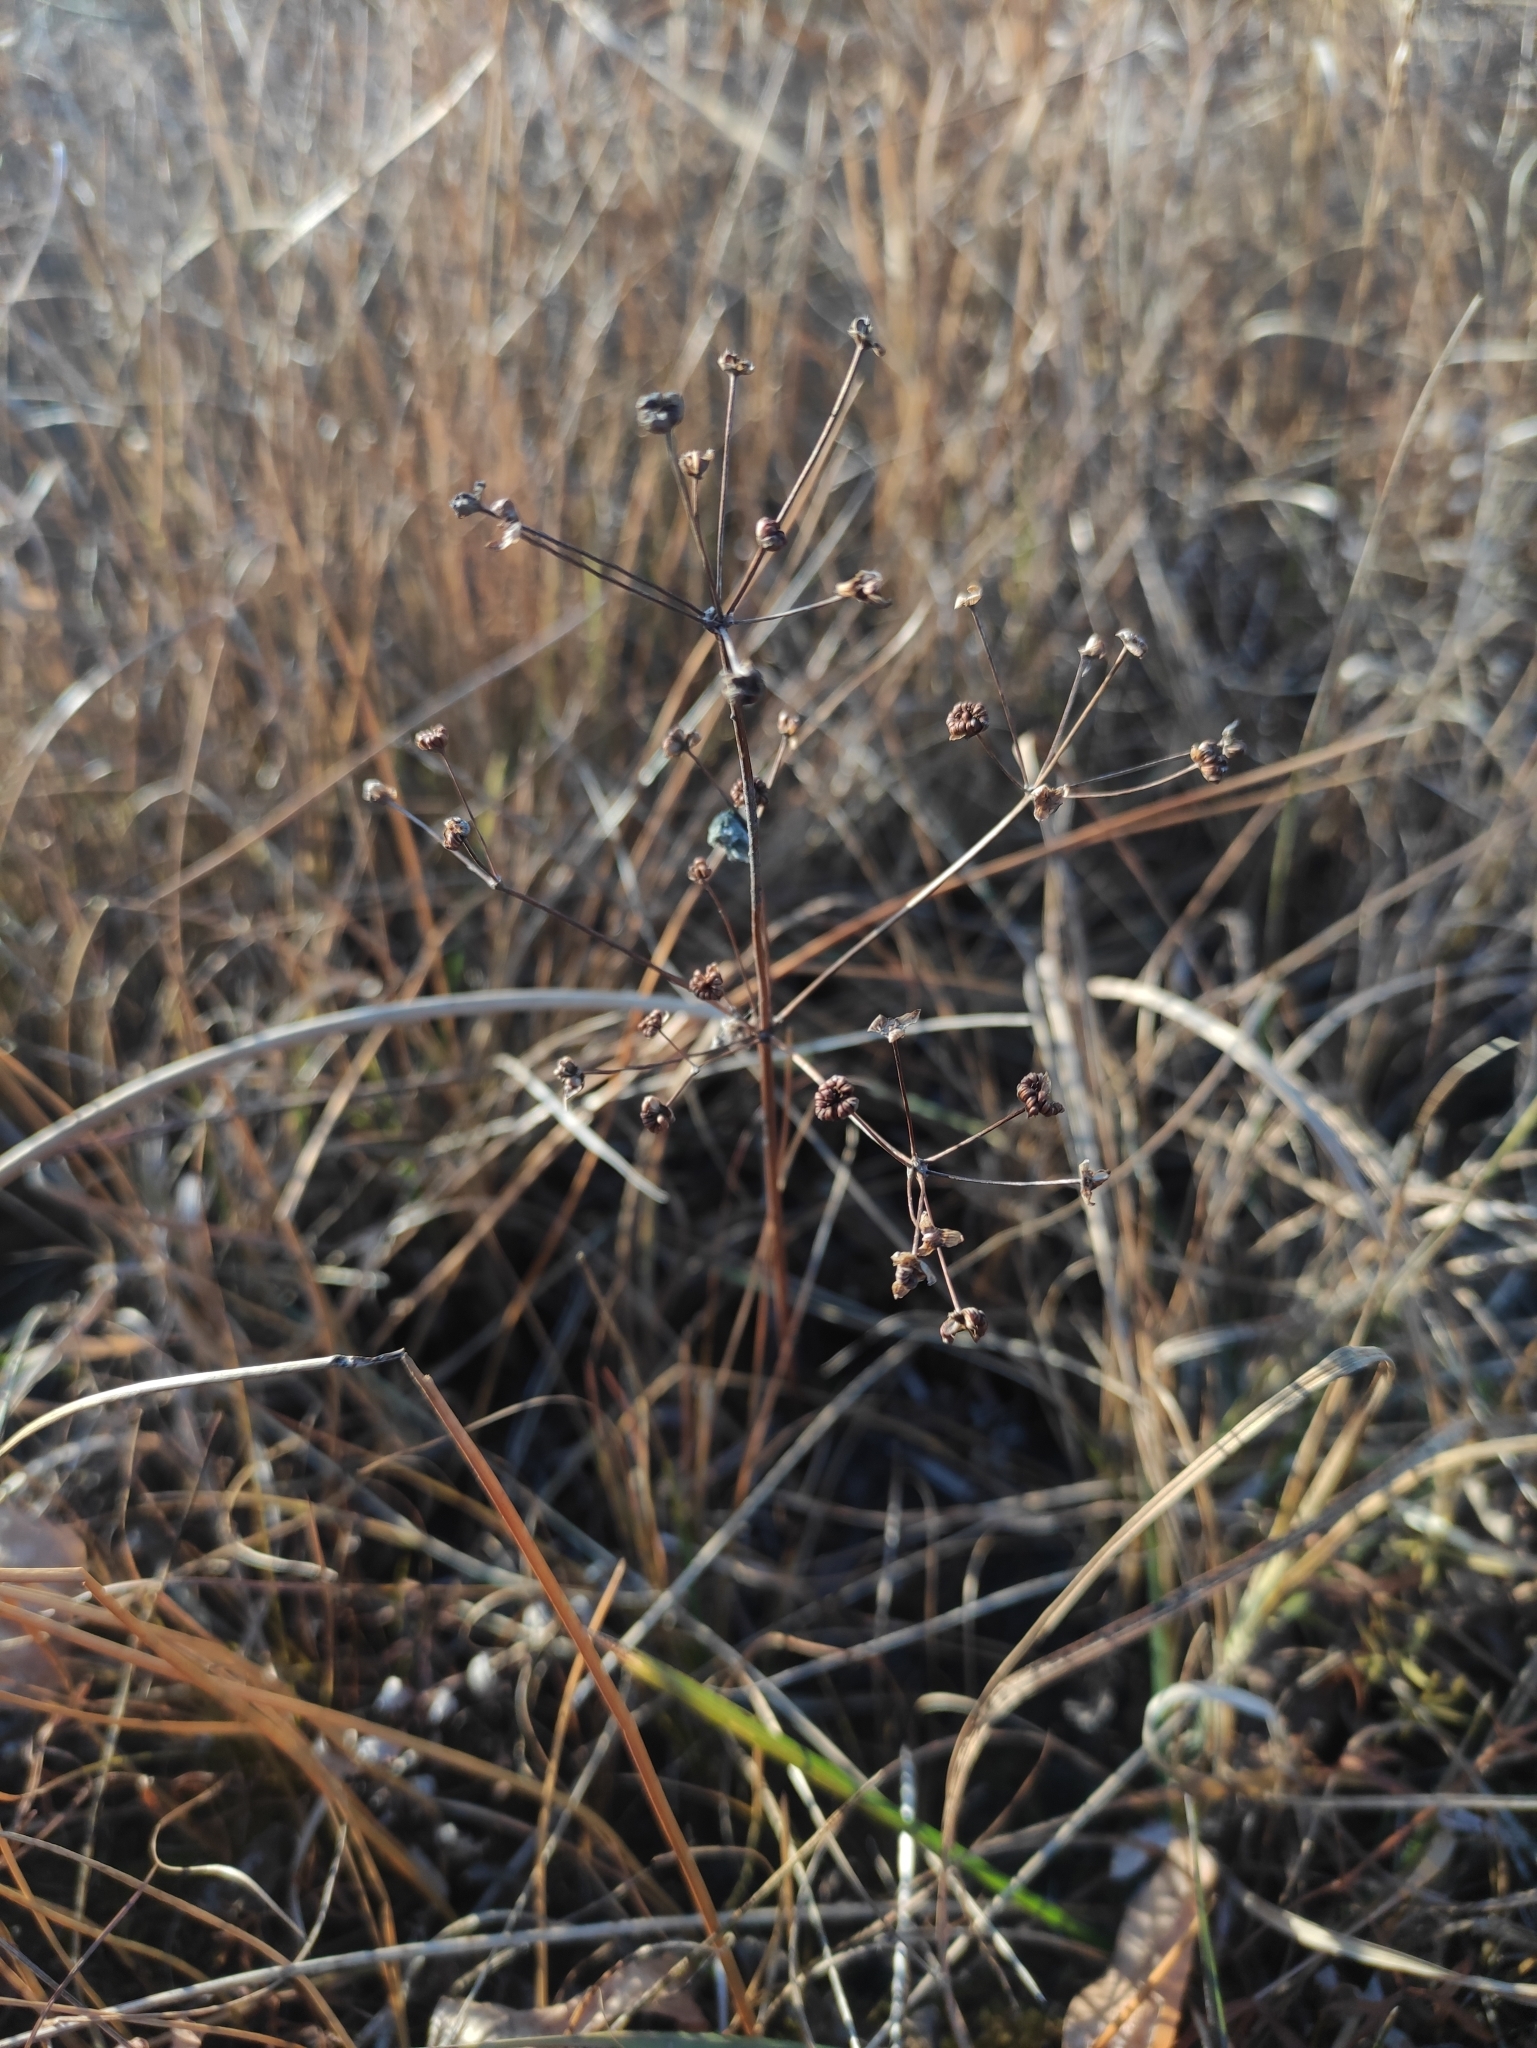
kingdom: Plantae
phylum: Tracheophyta
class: Liliopsida
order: Alismatales
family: Alismataceae
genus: Alisma
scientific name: Alisma plantago-aquatica
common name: Water-plantain
